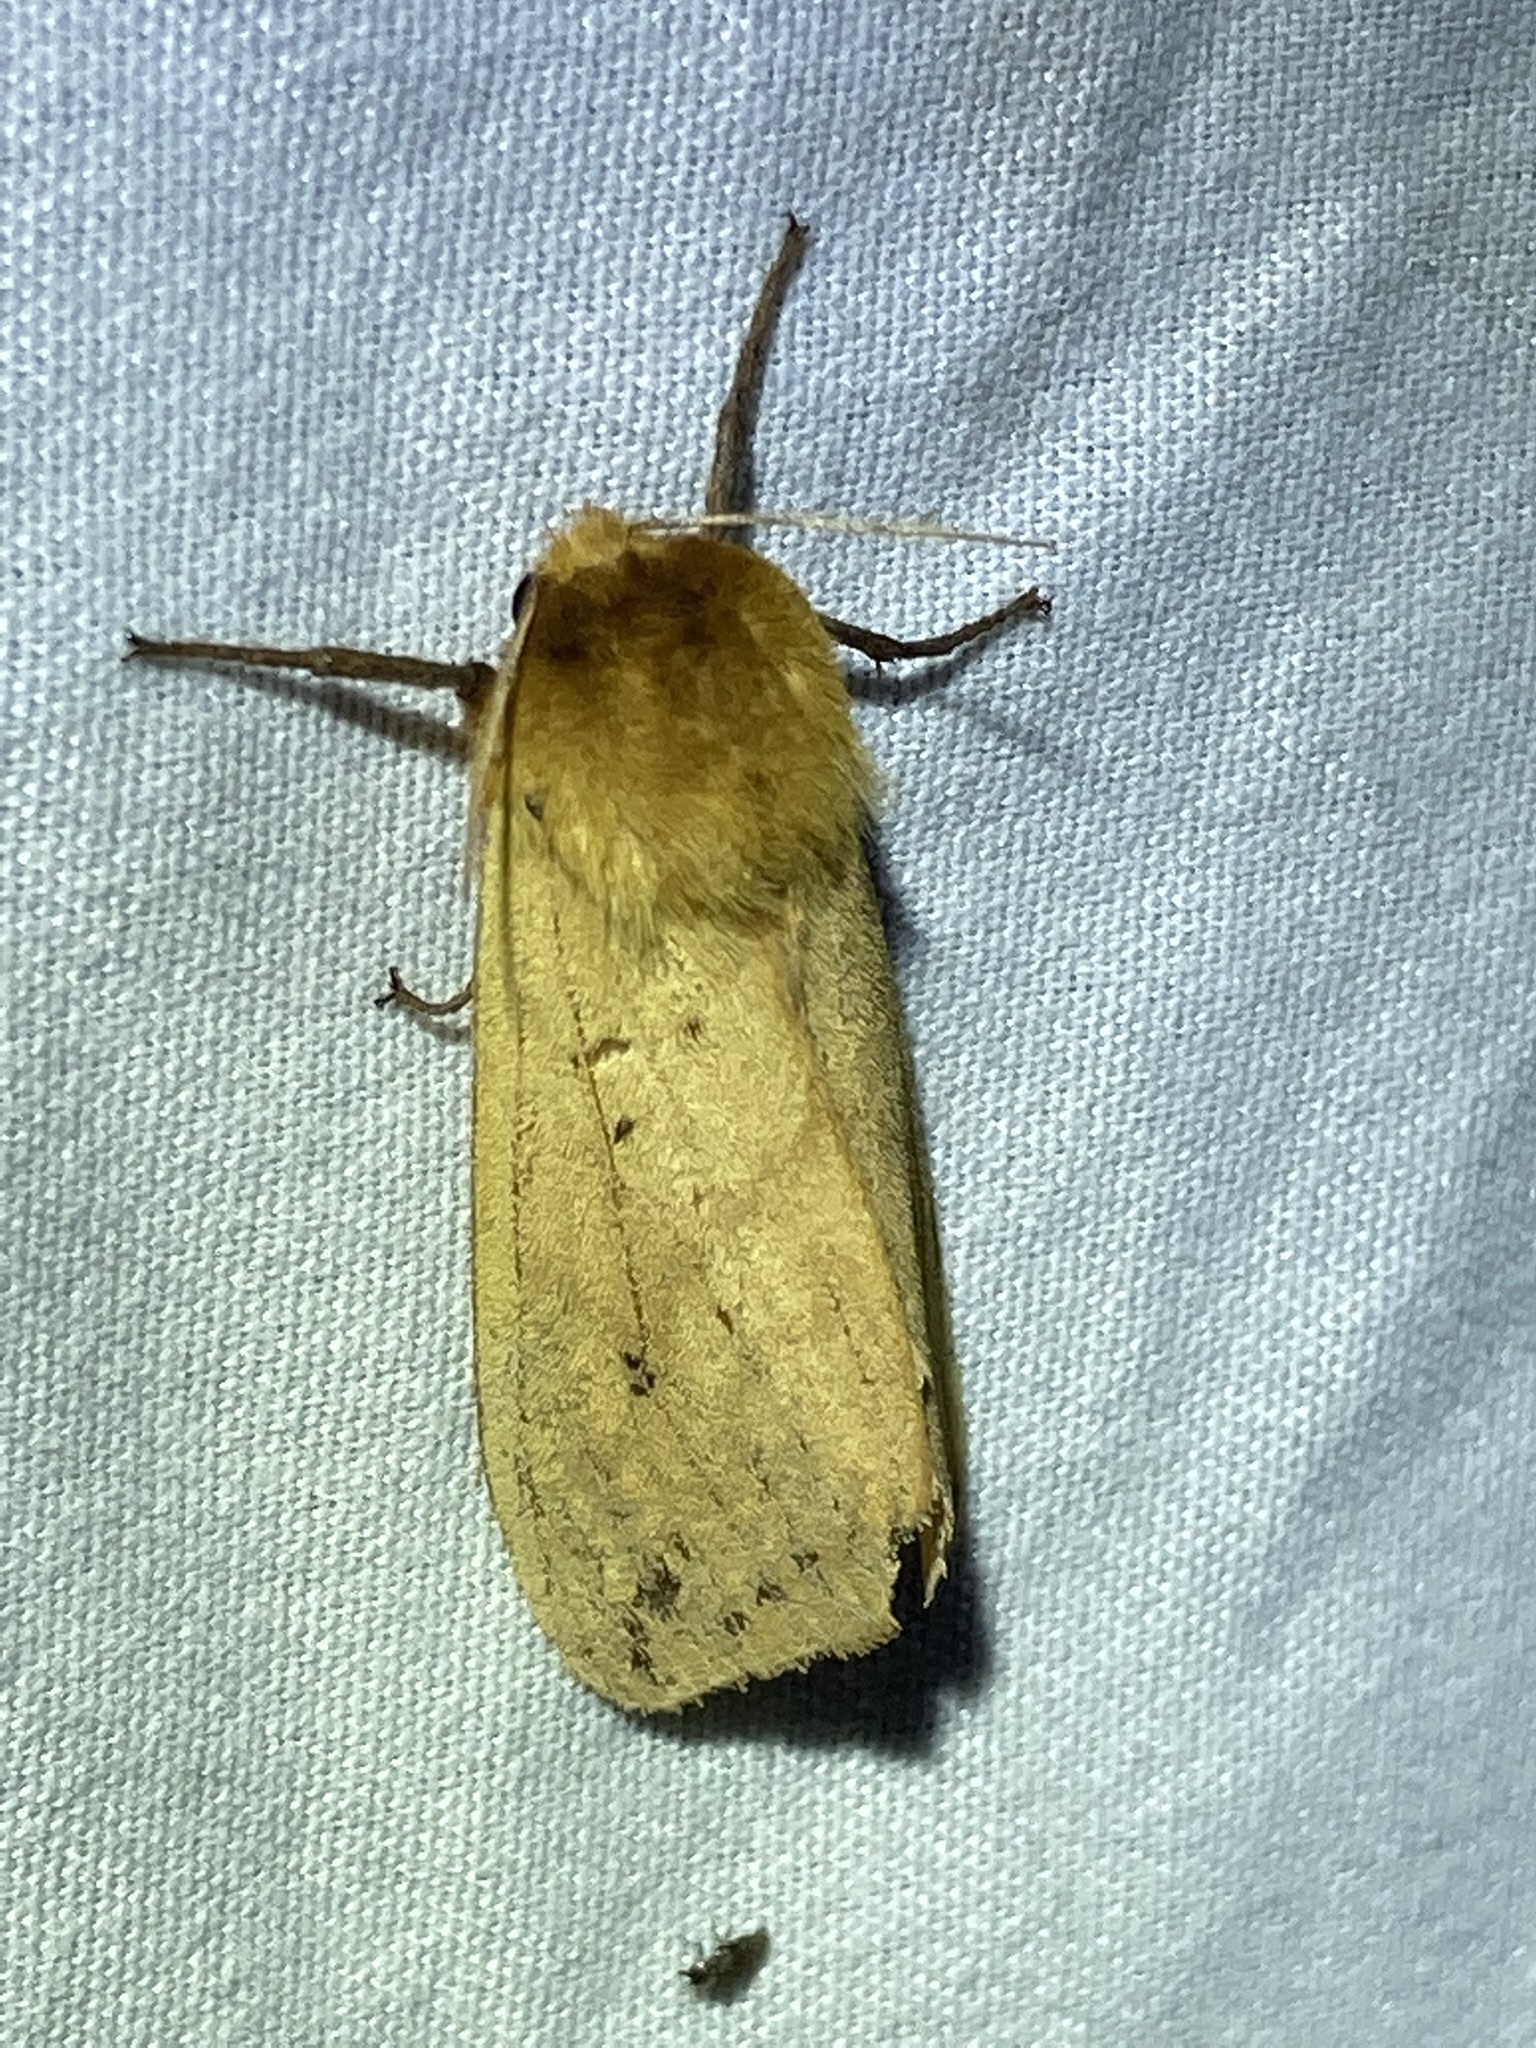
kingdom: Animalia
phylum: Arthropoda
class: Insecta
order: Lepidoptera
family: Erebidae
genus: Pyrrharctia
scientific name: Pyrrharctia isabella
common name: Isabella tiger moth
